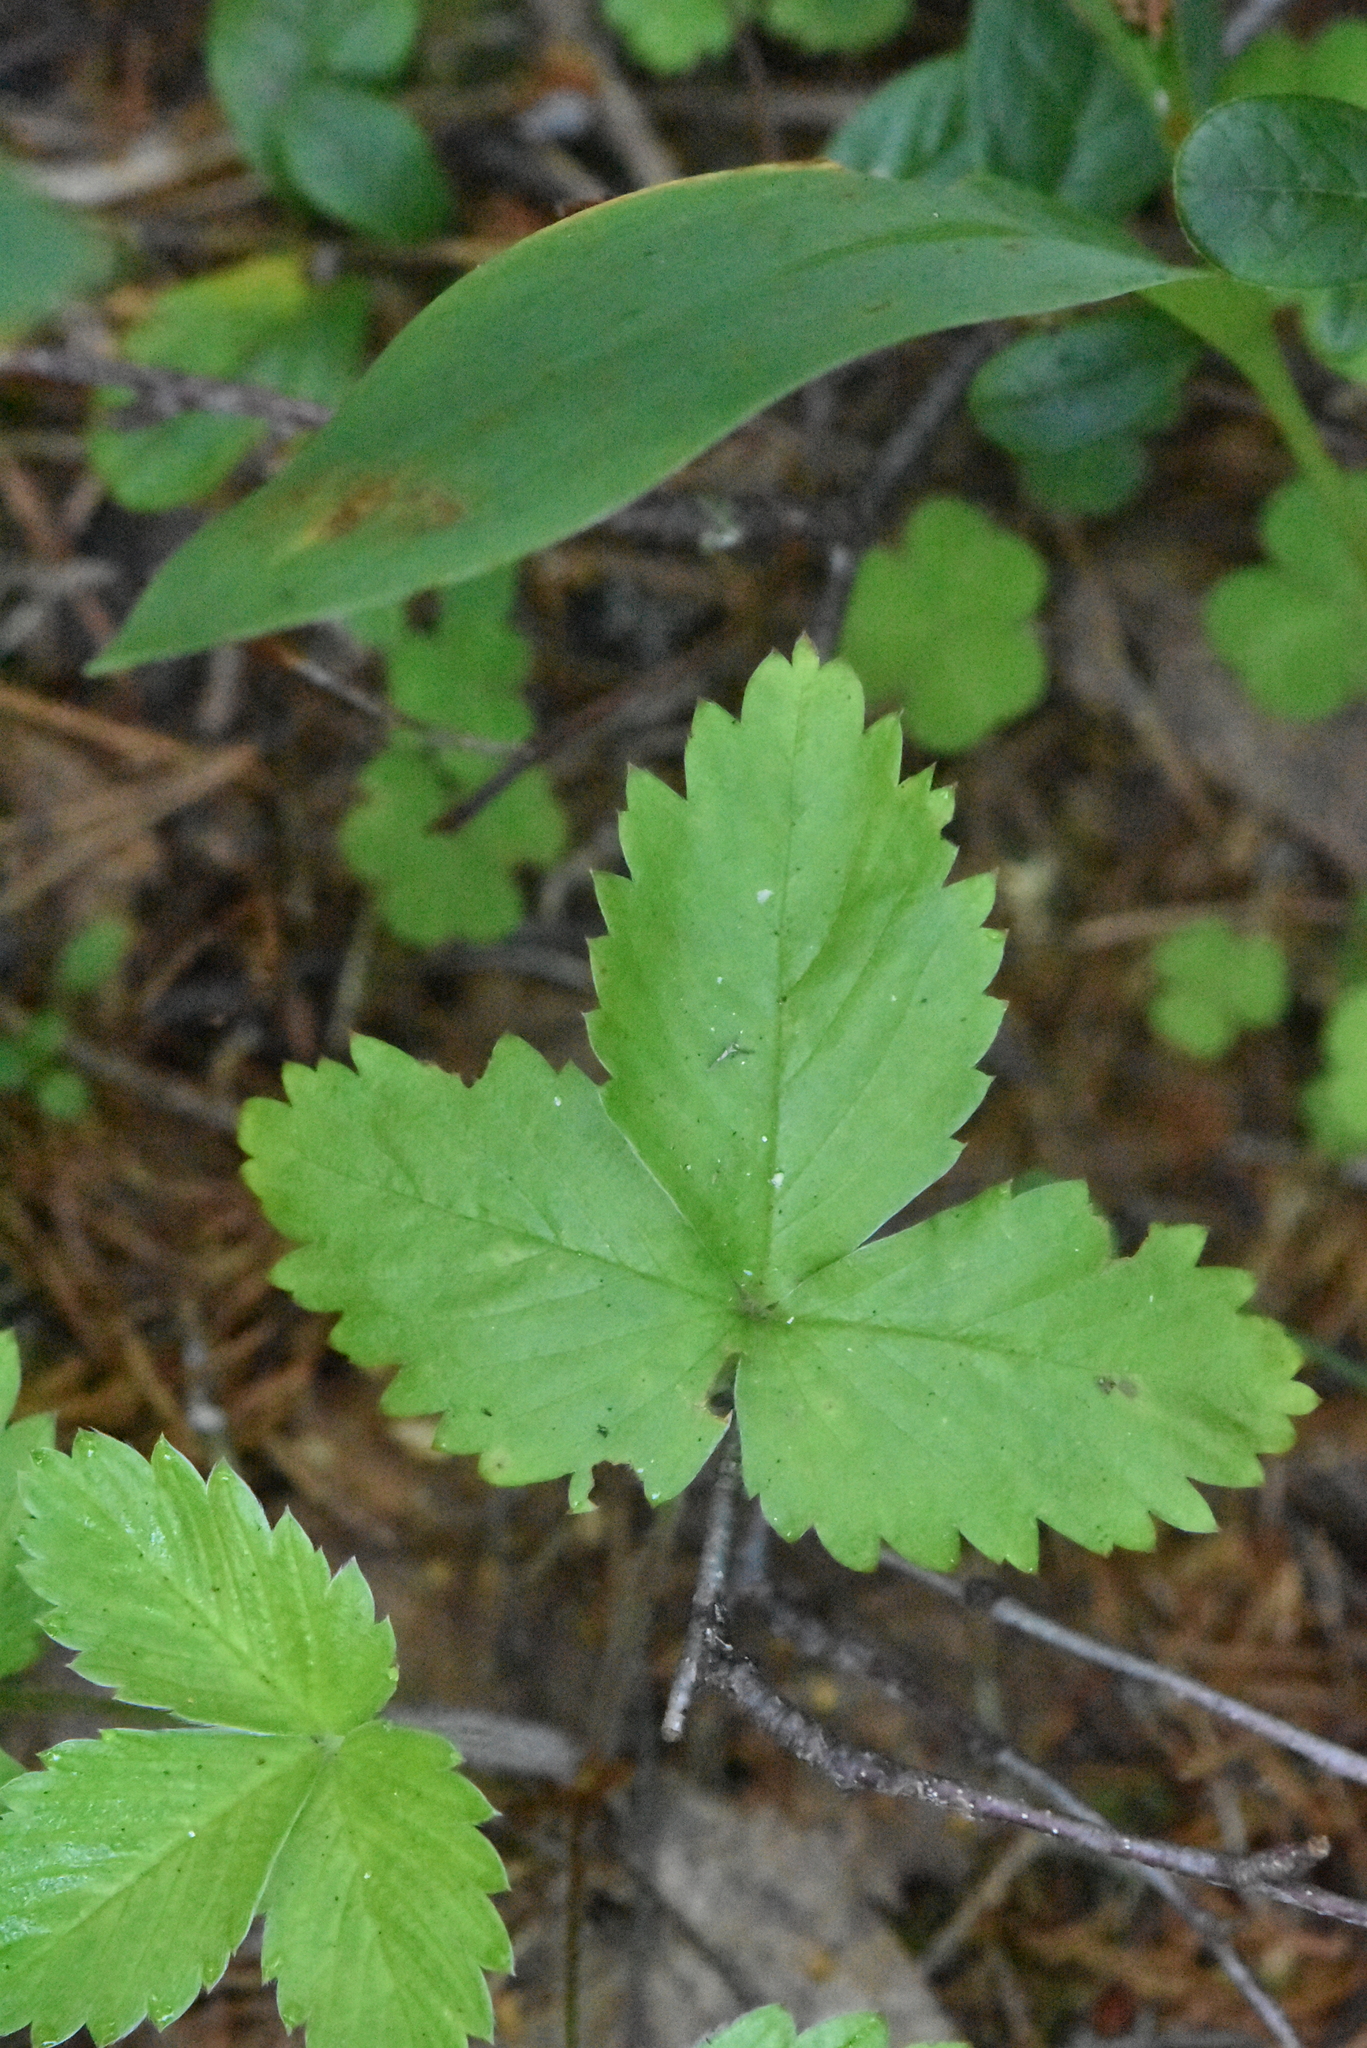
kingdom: Plantae
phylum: Tracheophyta
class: Magnoliopsida
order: Rosales
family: Rosaceae
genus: Fragaria
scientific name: Fragaria vesca
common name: Wild strawberry
